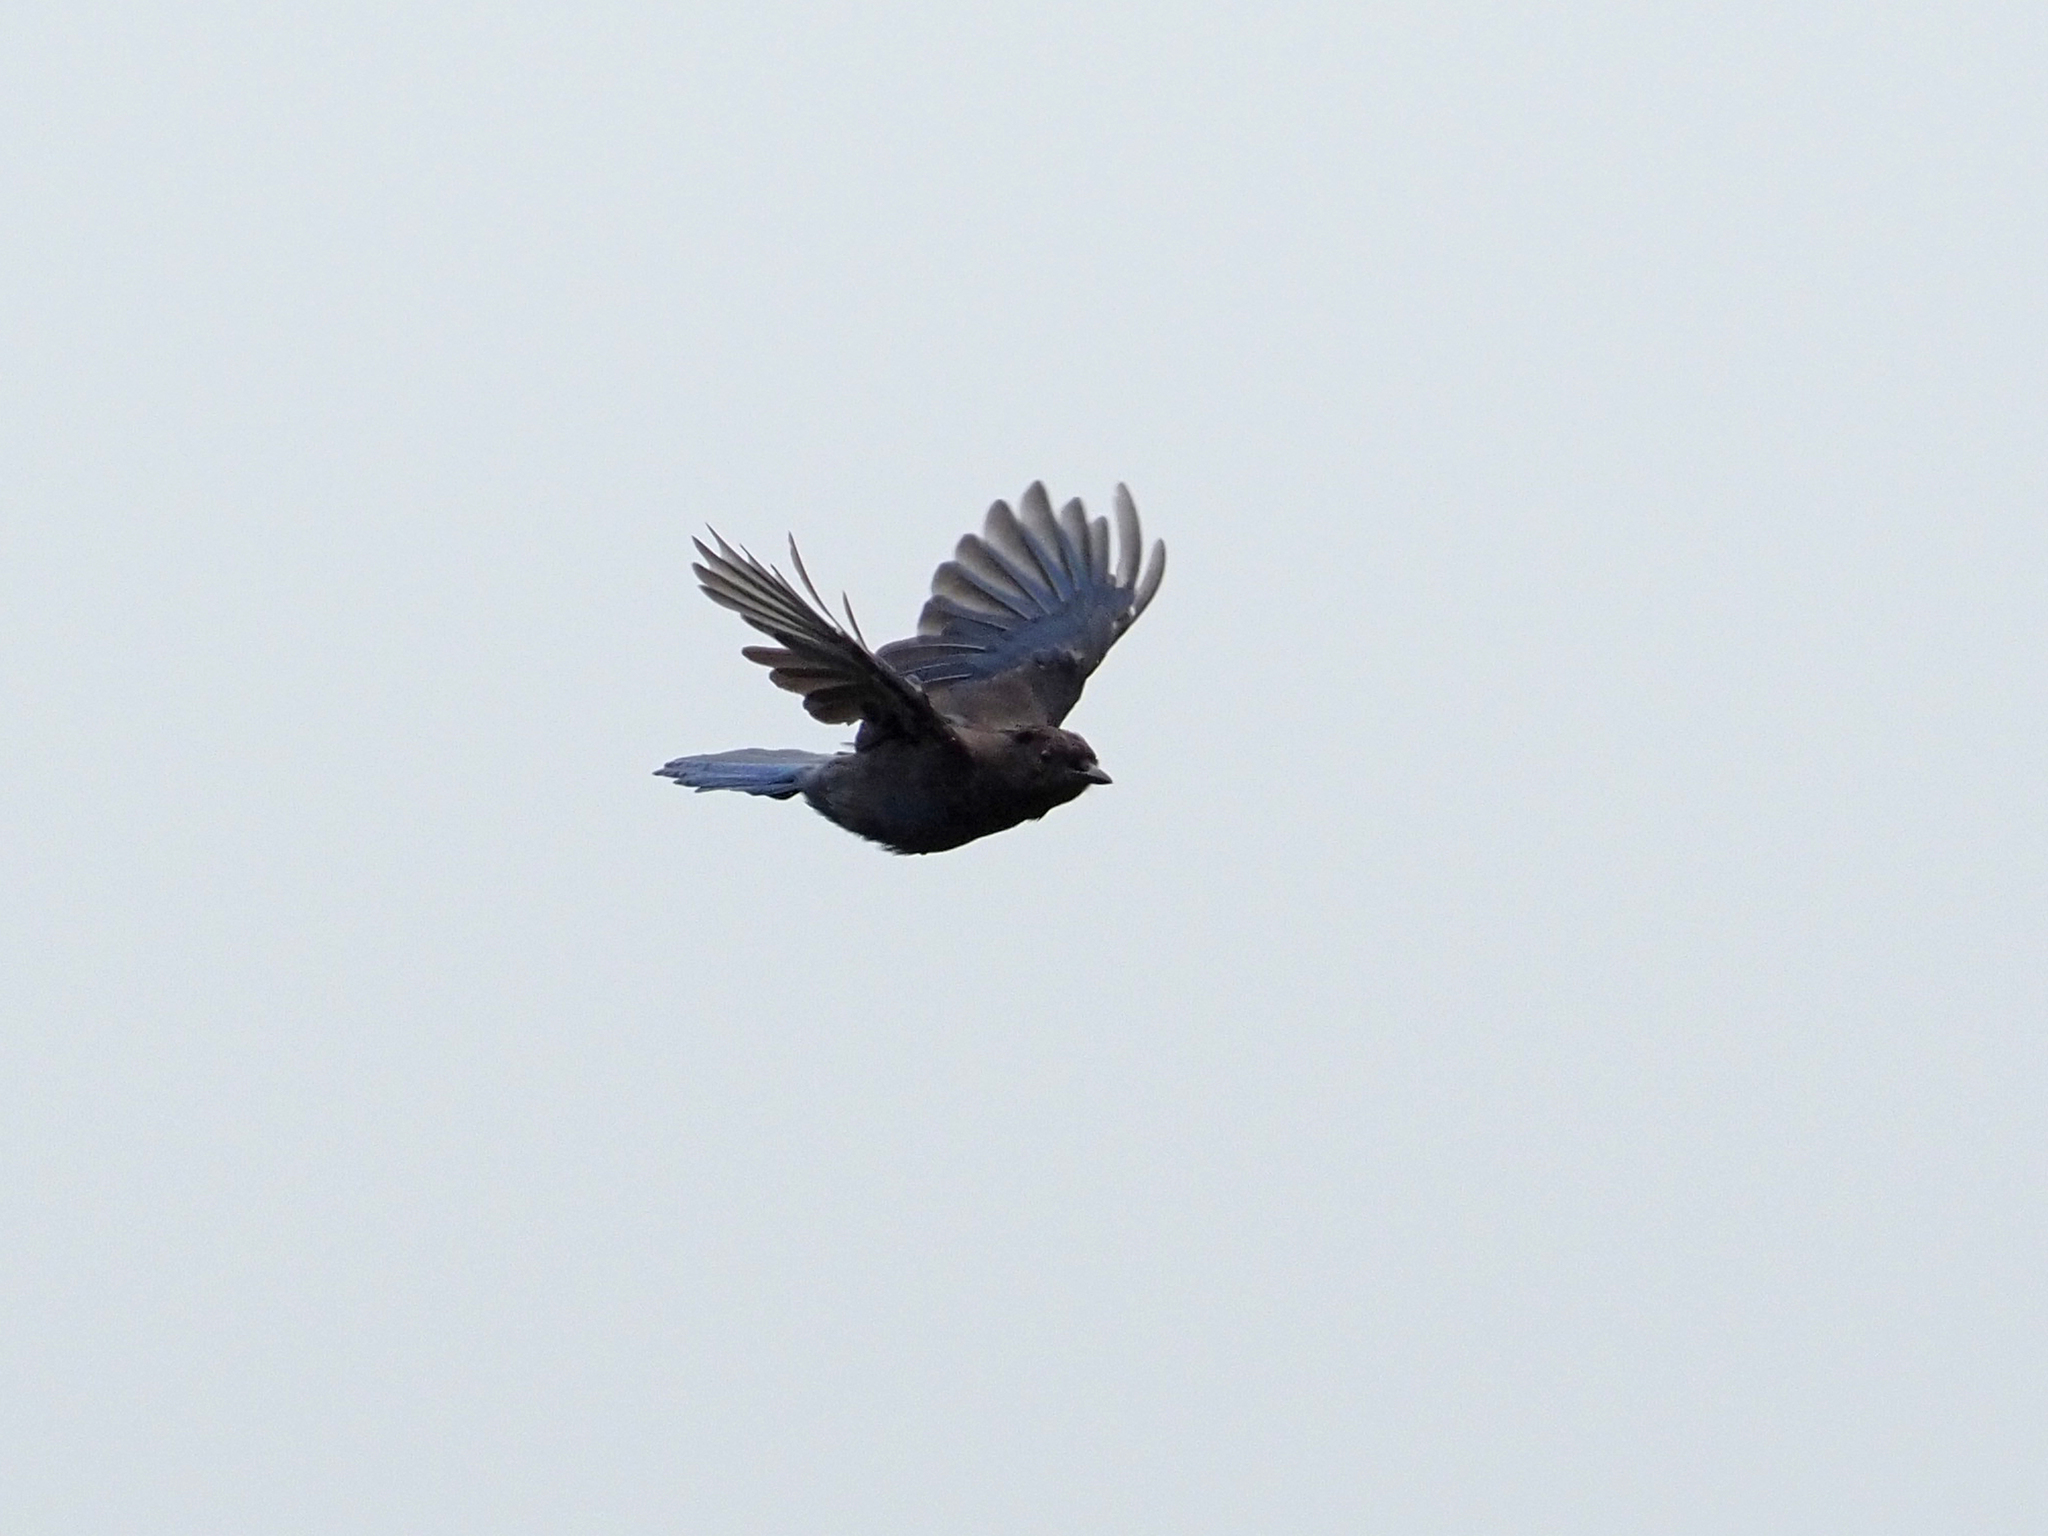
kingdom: Animalia
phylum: Chordata
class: Aves
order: Passeriformes
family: Corvidae
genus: Cyanocitta
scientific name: Cyanocitta stelleri
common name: Steller's jay
